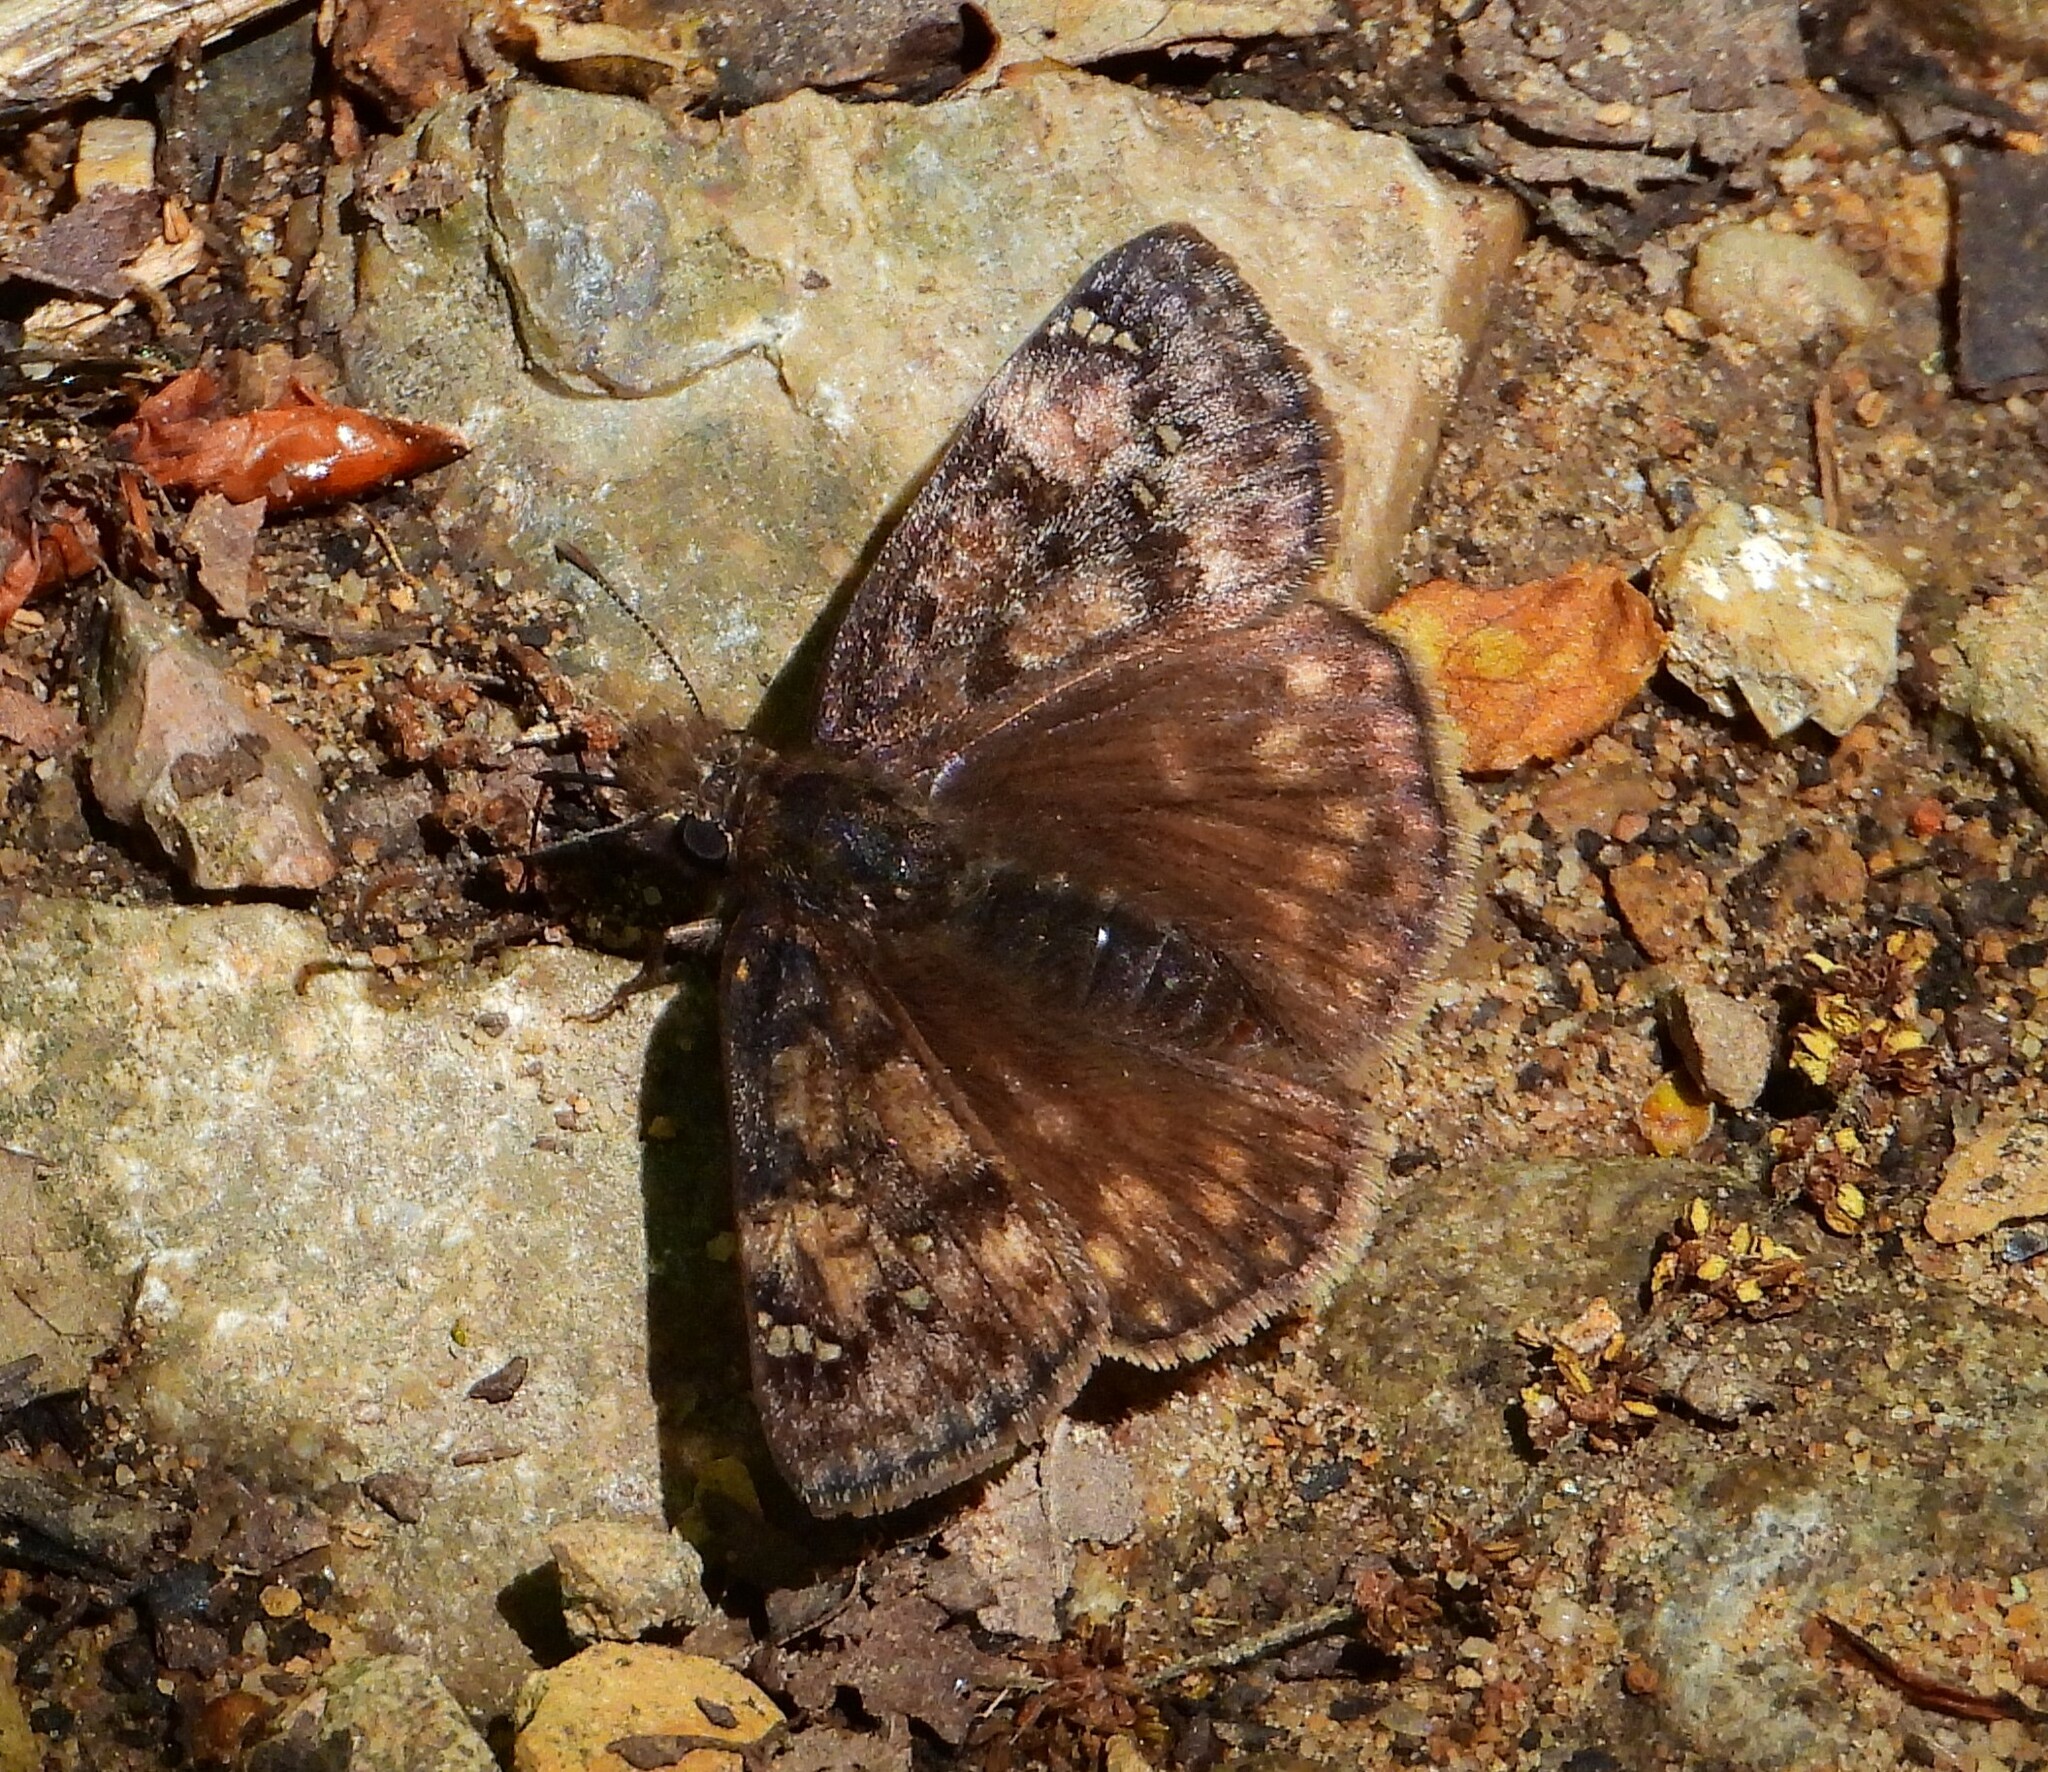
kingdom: Animalia
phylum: Arthropoda
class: Insecta
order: Lepidoptera
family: Hesperiidae
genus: Erynnis
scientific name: Erynnis juvenalis
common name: Juvenal's duskywing
